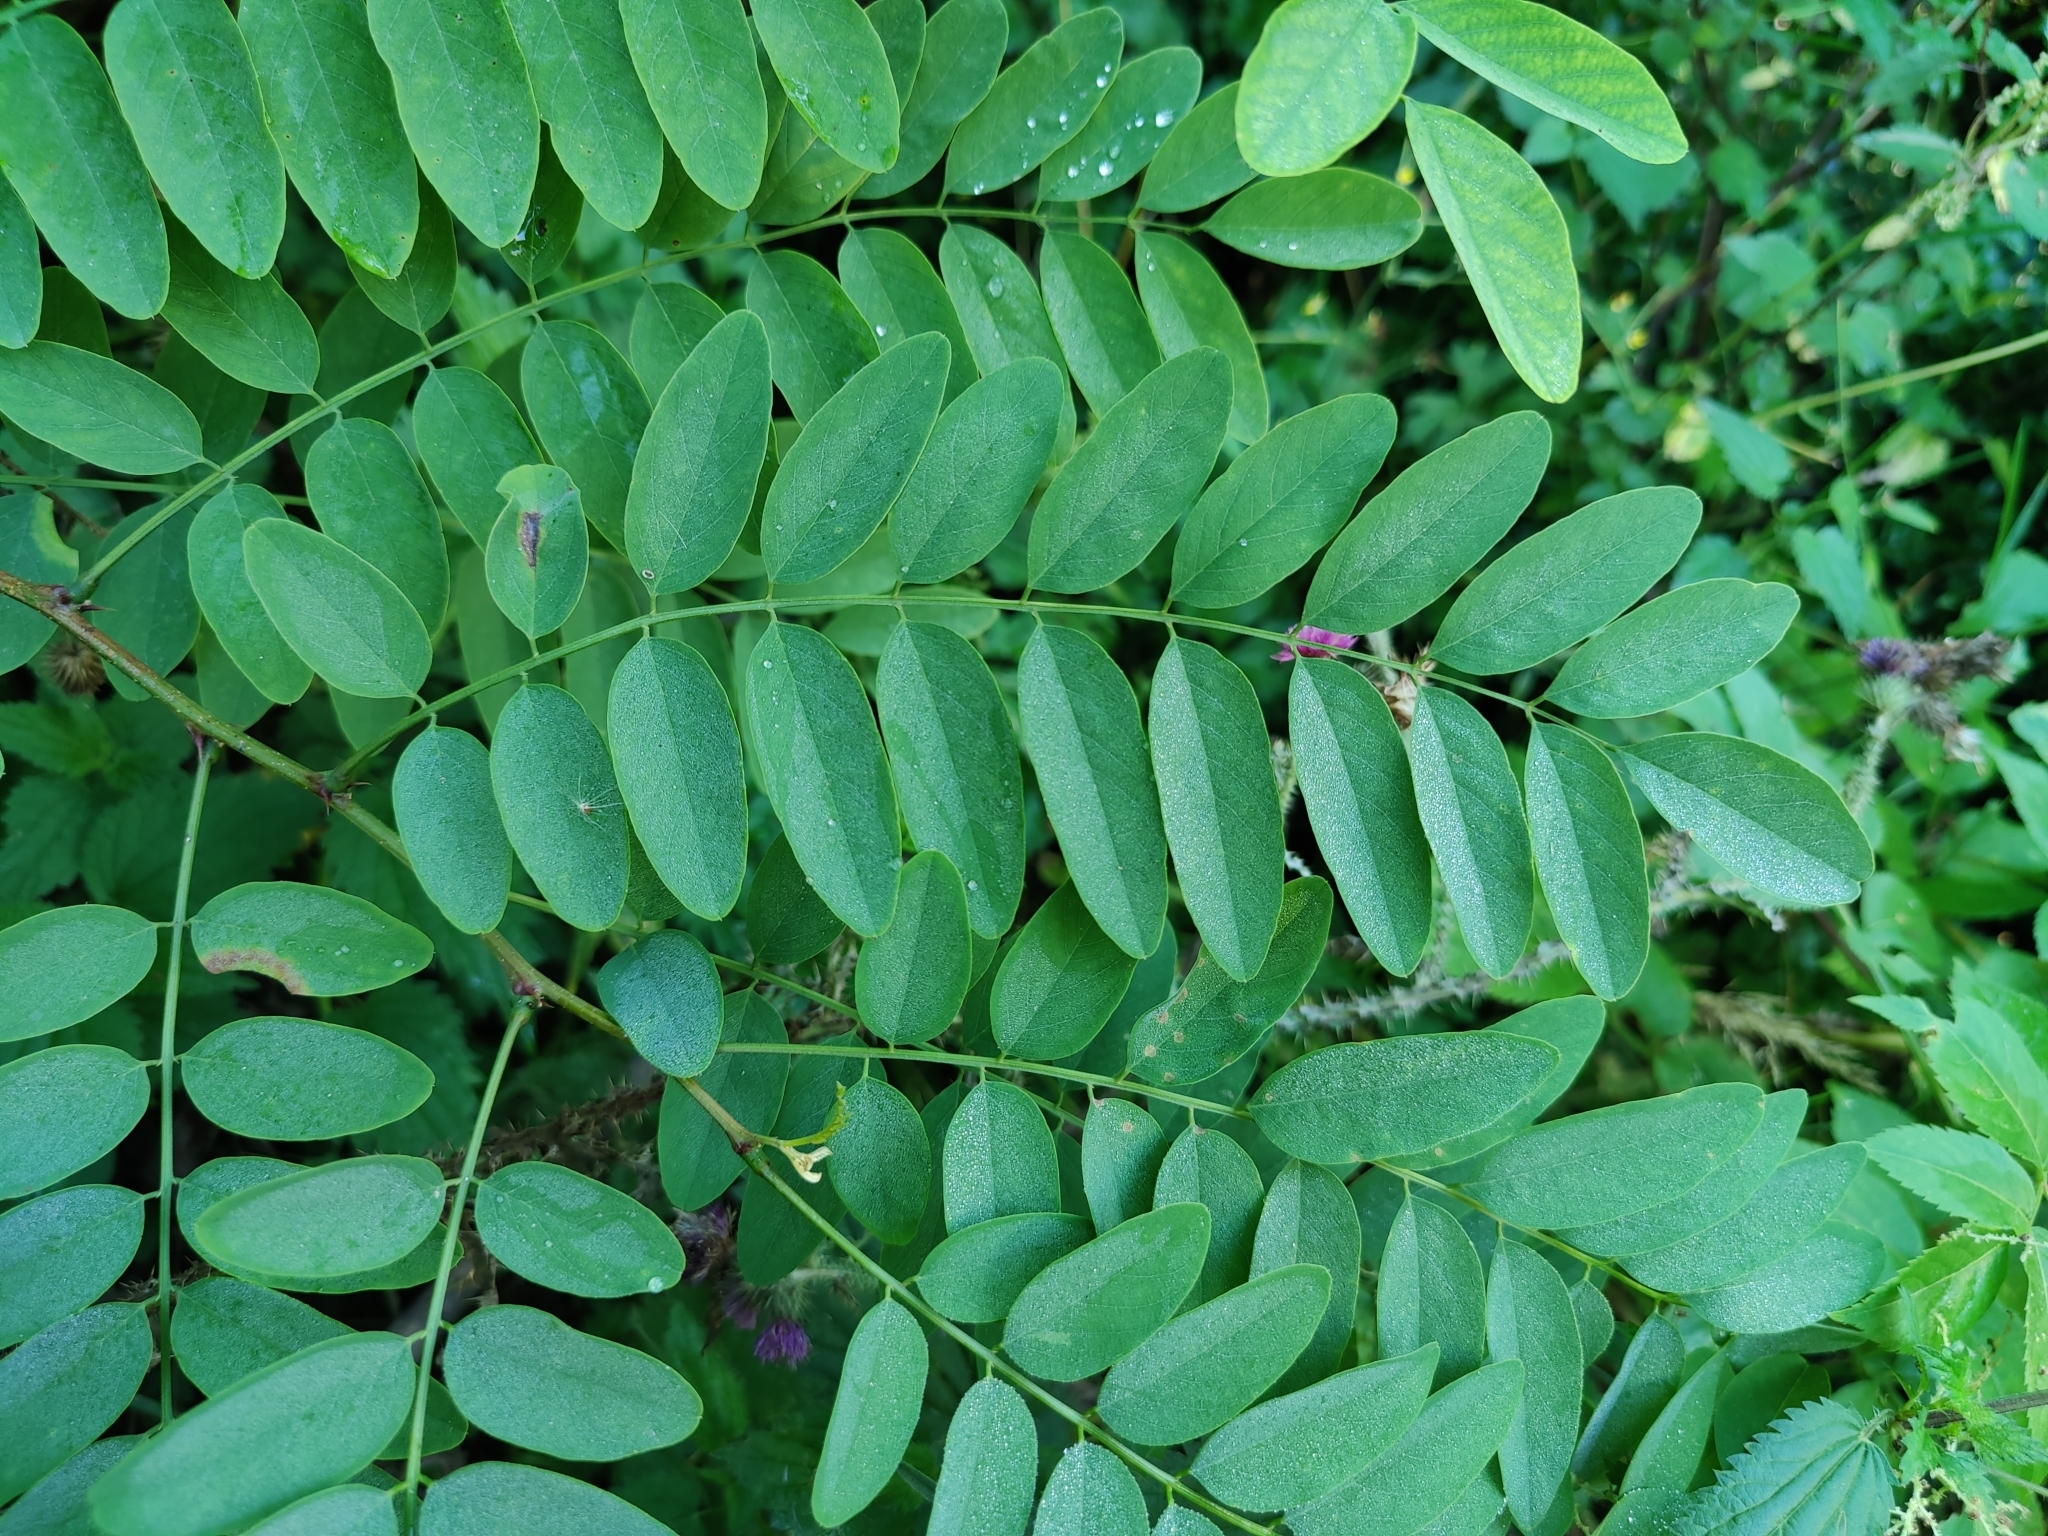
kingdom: Plantae
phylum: Tracheophyta
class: Magnoliopsida
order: Fabales
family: Fabaceae
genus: Robinia
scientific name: Robinia pseudoacacia
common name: Black locust
